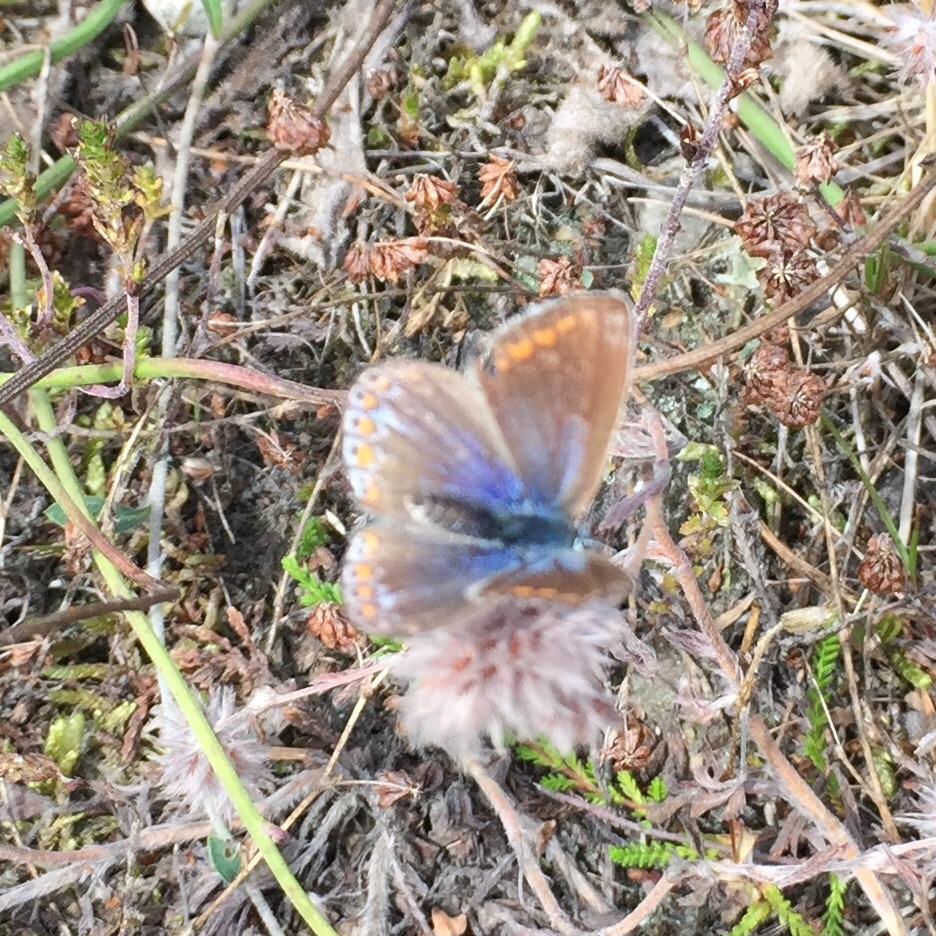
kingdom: Animalia
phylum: Arthropoda
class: Insecta
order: Lepidoptera
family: Lycaenidae
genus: Polyommatus
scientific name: Polyommatus icarus
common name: Common blue
